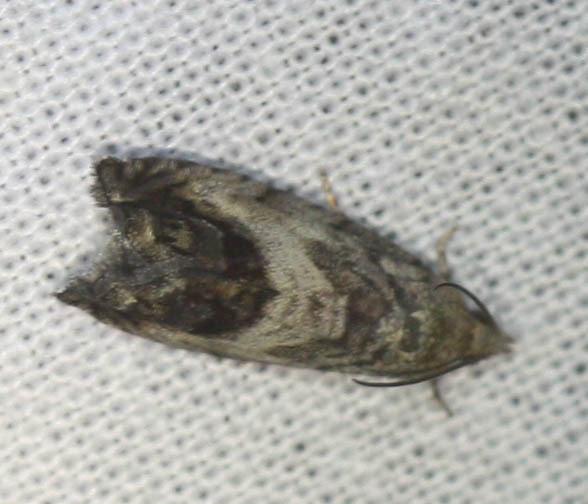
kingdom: Animalia
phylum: Arthropoda
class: Insecta
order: Lepidoptera
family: Tortricidae
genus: Cydia
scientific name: Cydia splendana
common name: De: kastanienwickler, eichenwickler es: oruga de la castaña fr: carpocapse des châtaignes it: cidia o tortrice tardiva delle castagne pt: bichado das castanhas gb: acorn moth, chestnut fruit tortrix
